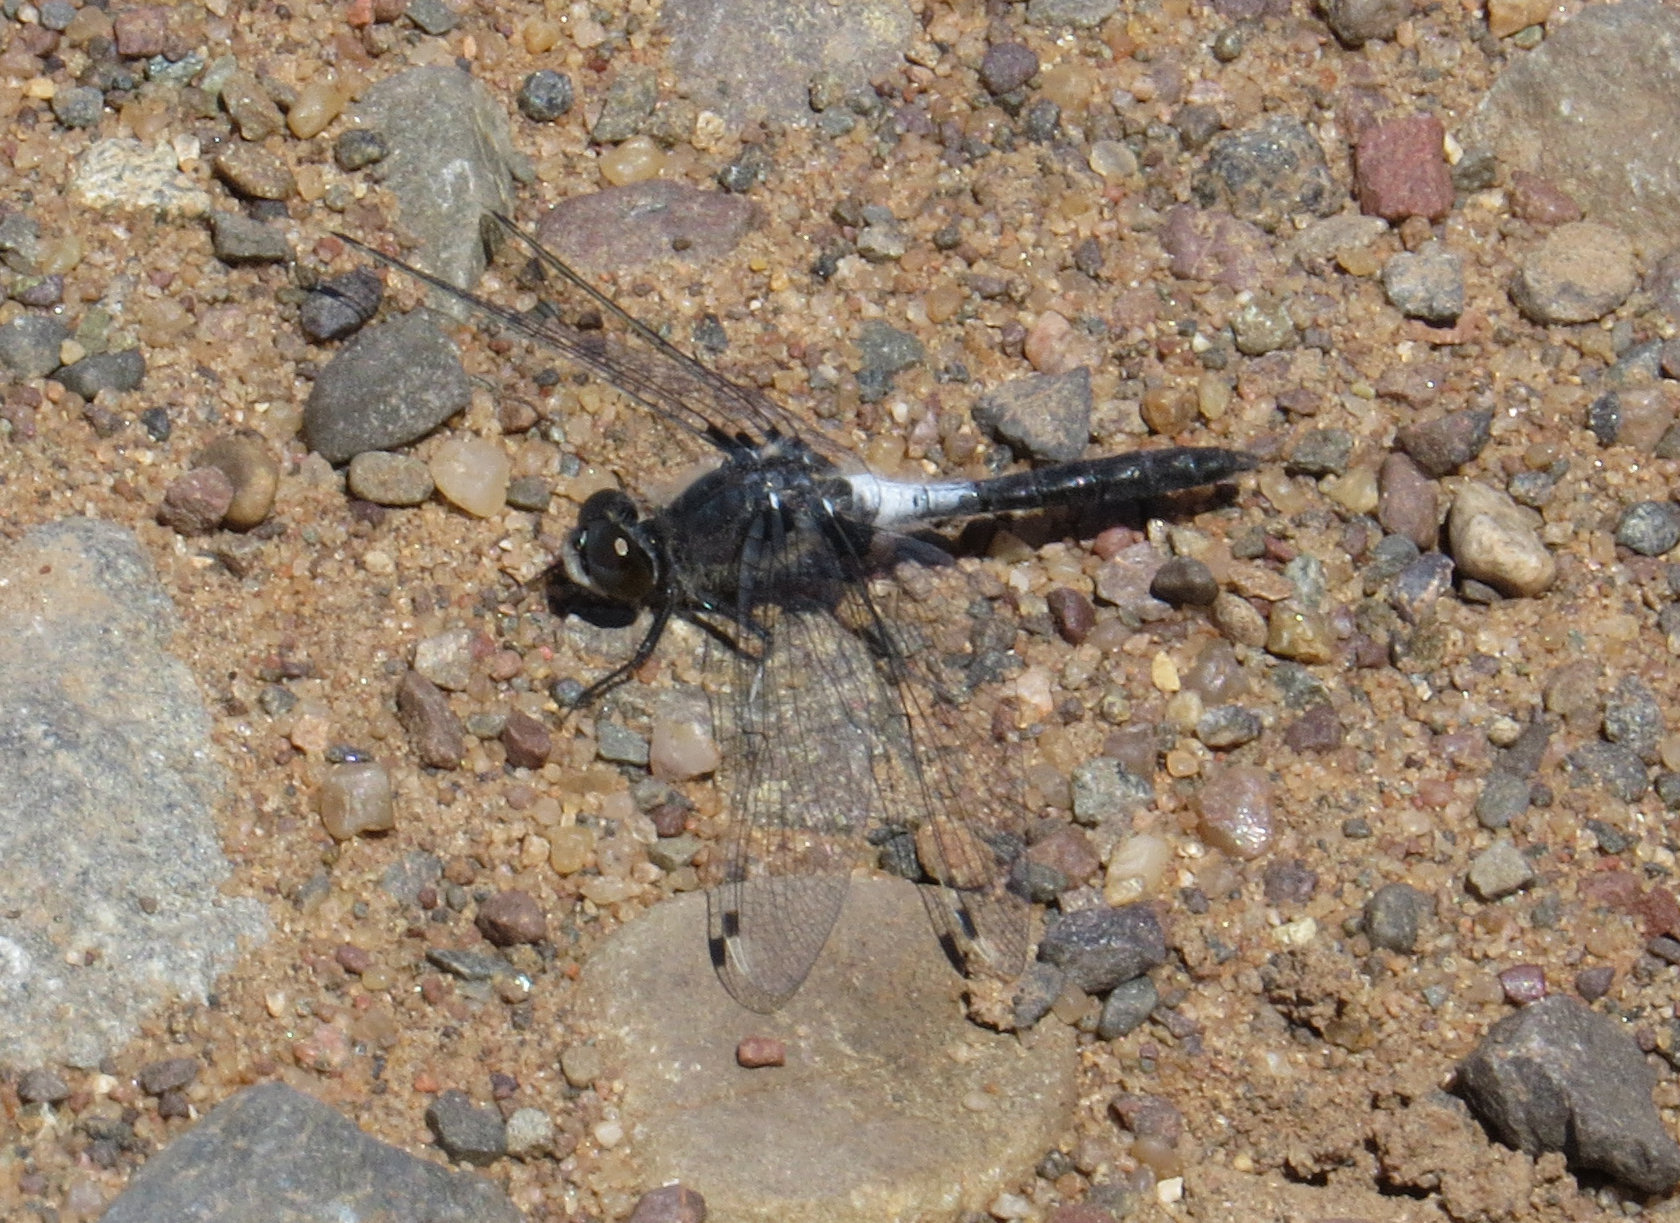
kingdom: Animalia
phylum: Arthropoda
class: Insecta
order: Odonata
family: Libellulidae
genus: Leucorrhinia
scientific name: Leucorrhinia frigida
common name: Frosted whiteface
